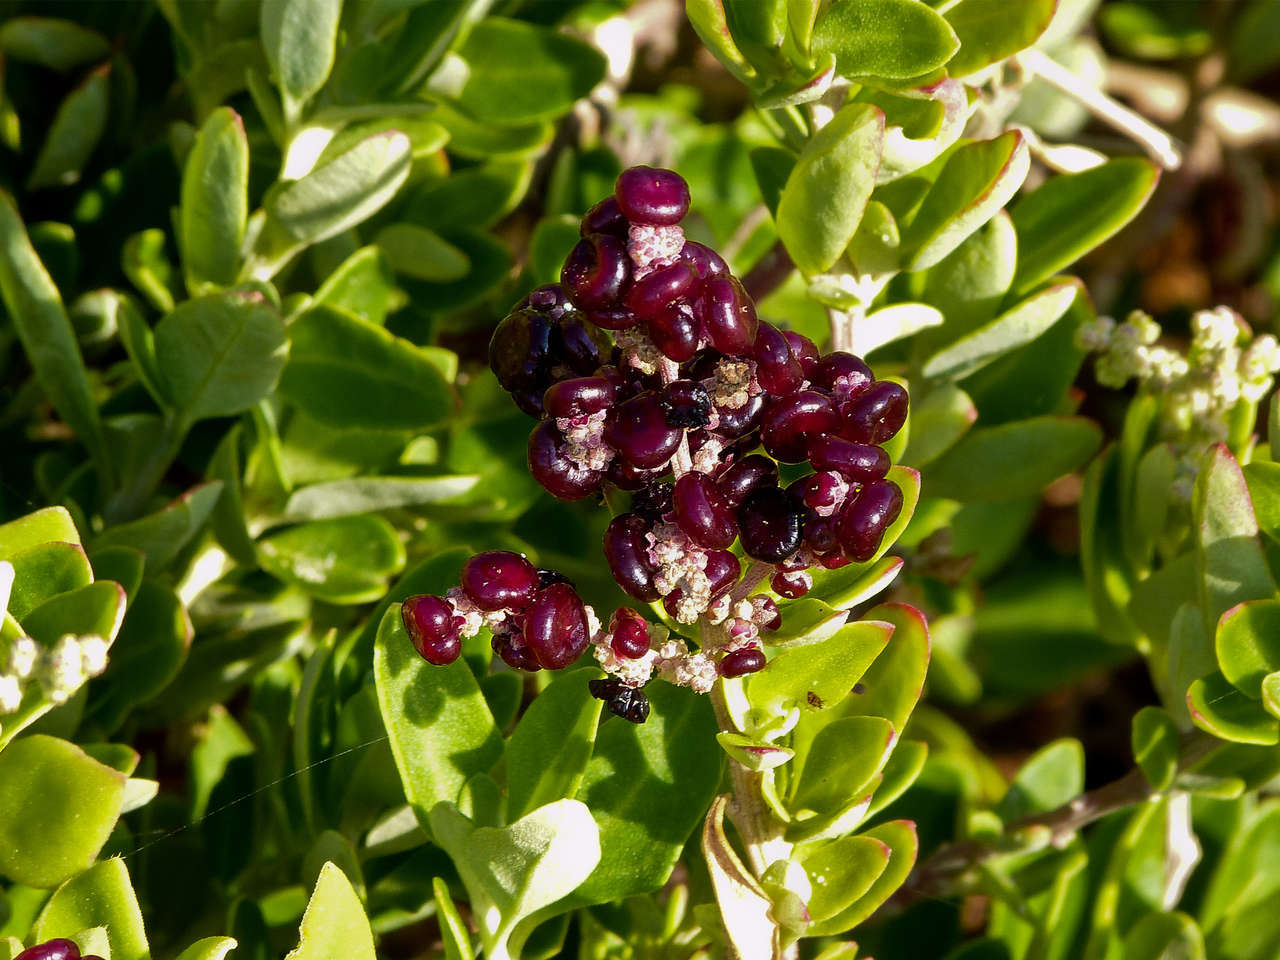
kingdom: Plantae
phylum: Tracheophyta
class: Magnoliopsida
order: Caryophyllales
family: Amaranthaceae
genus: Chenopodium
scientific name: Chenopodium candolleanum
